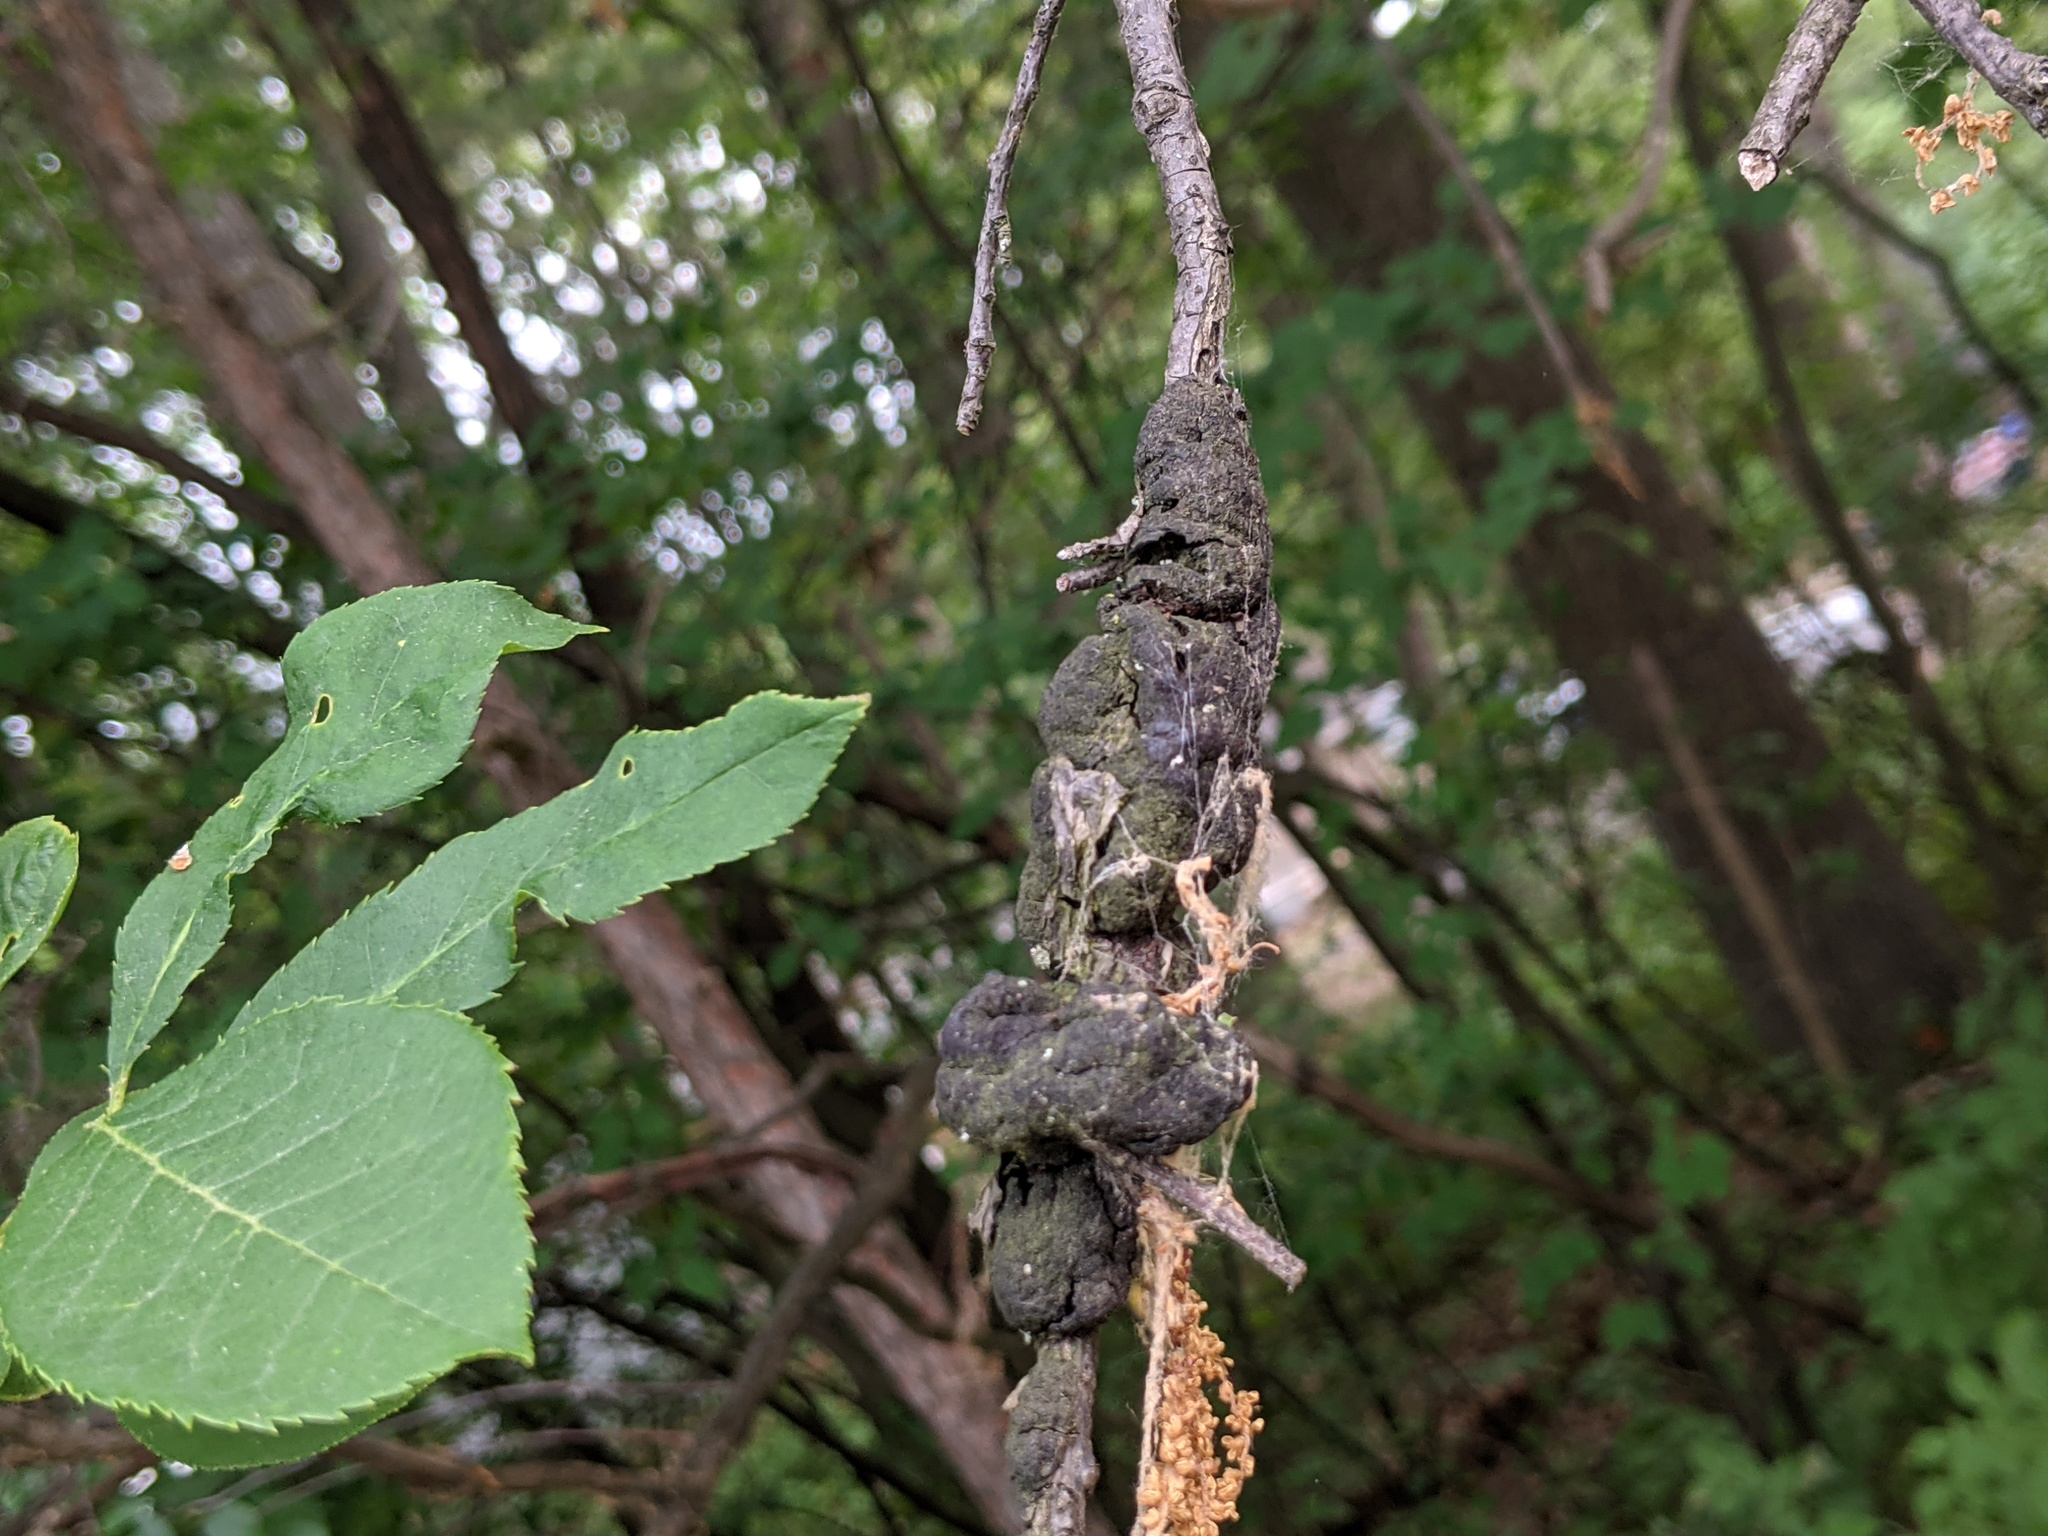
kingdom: Fungi
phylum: Ascomycota
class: Dothideomycetes
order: Venturiales
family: Venturiaceae
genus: Apiosporina
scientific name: Apiosporina morbosa
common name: Black knot
